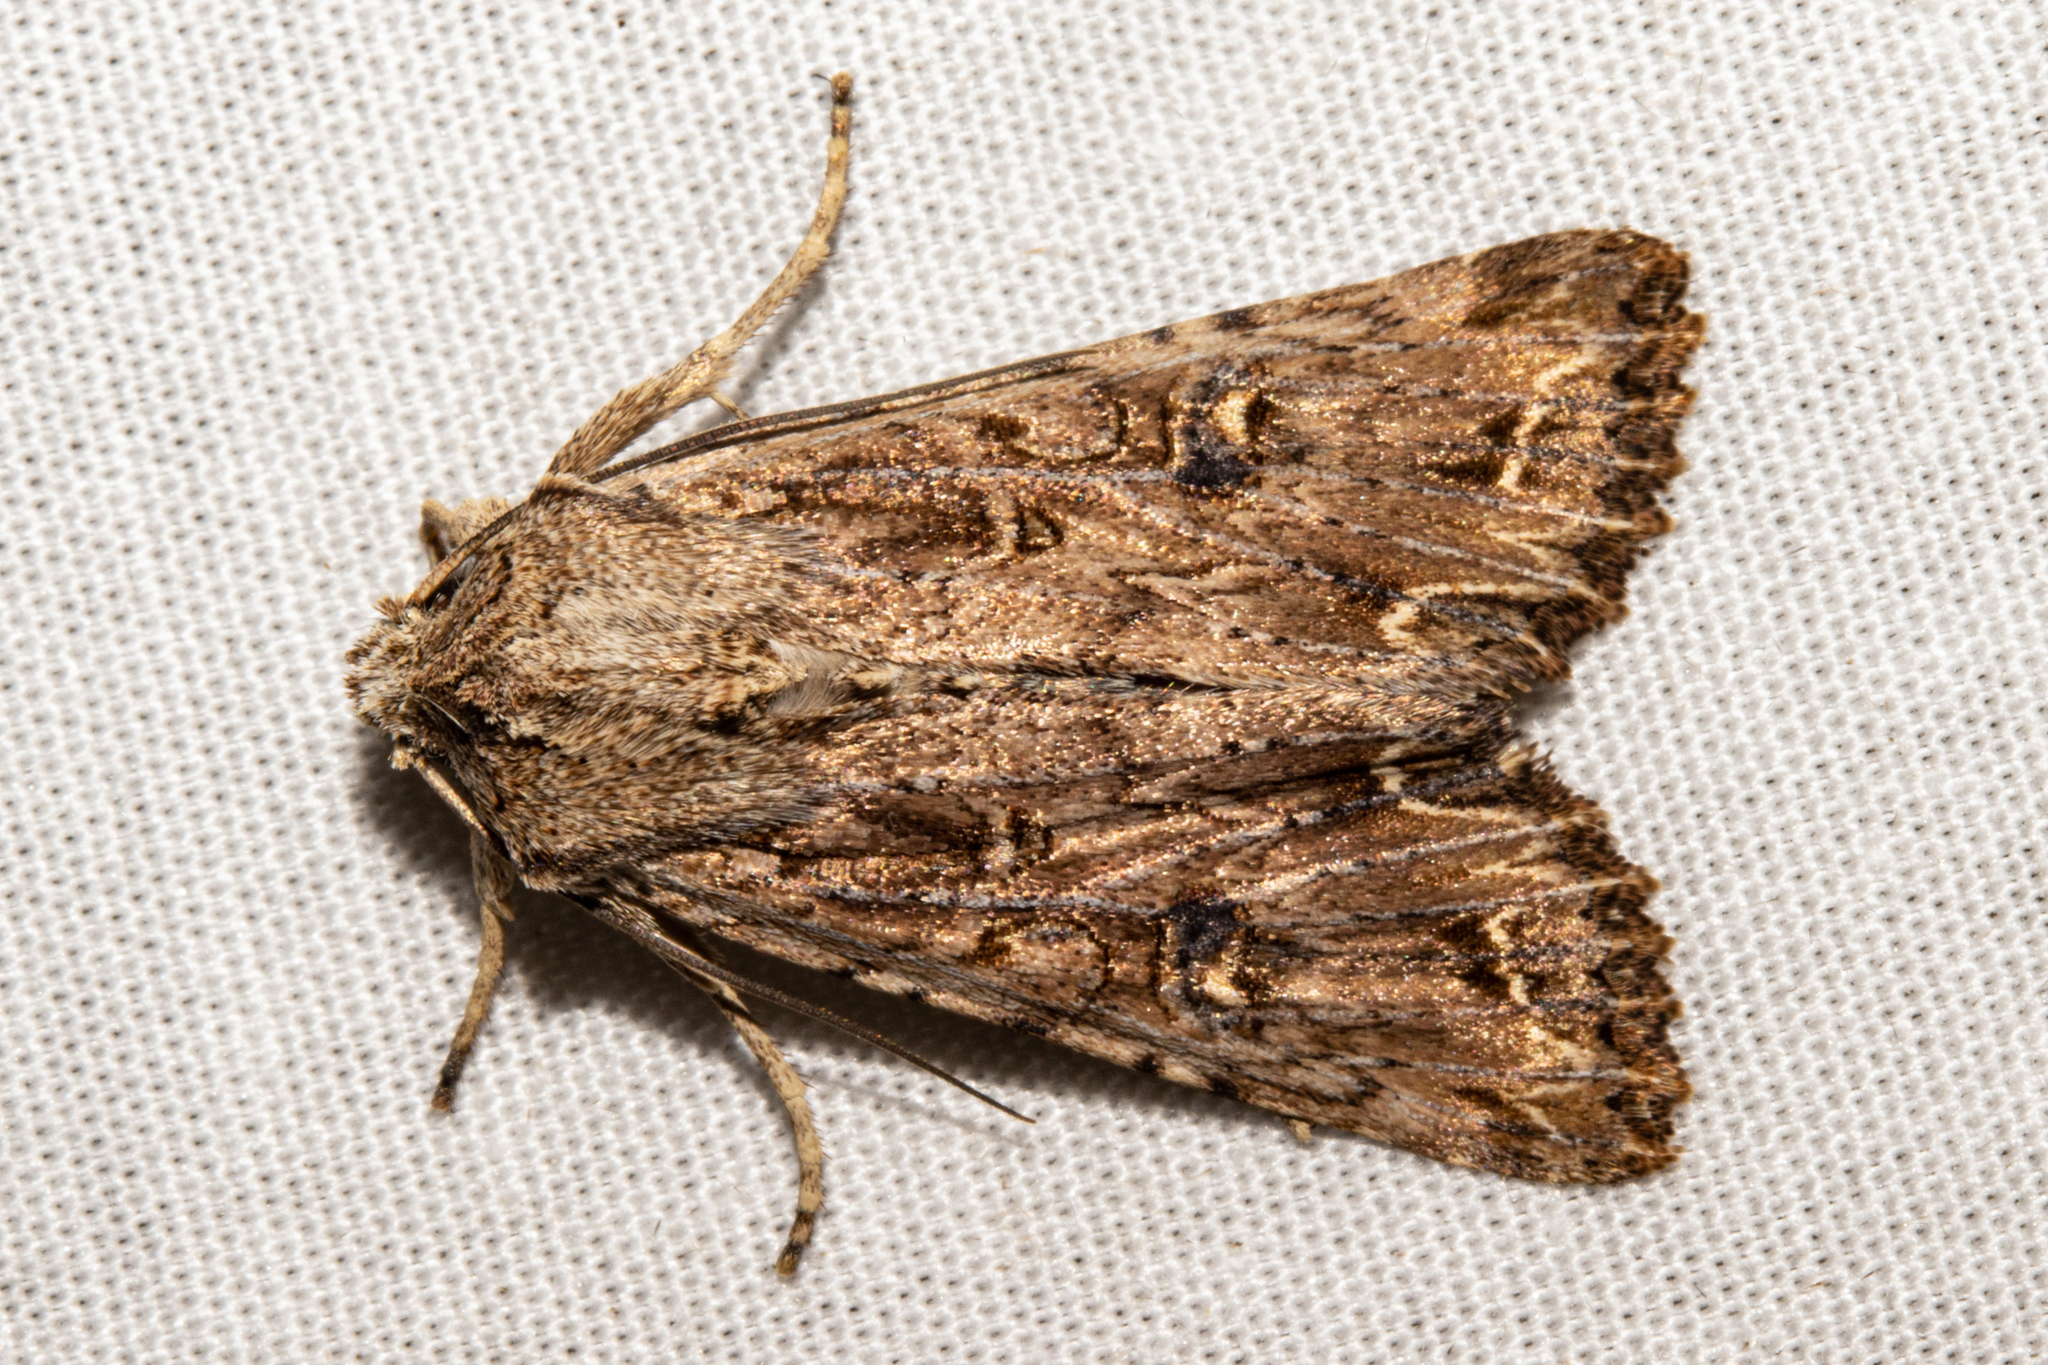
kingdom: Animalia
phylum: Arthropoda
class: Insecta
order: Lepidoptera
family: Noctuidae
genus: Ichneutica
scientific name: Ichneutica lignana
